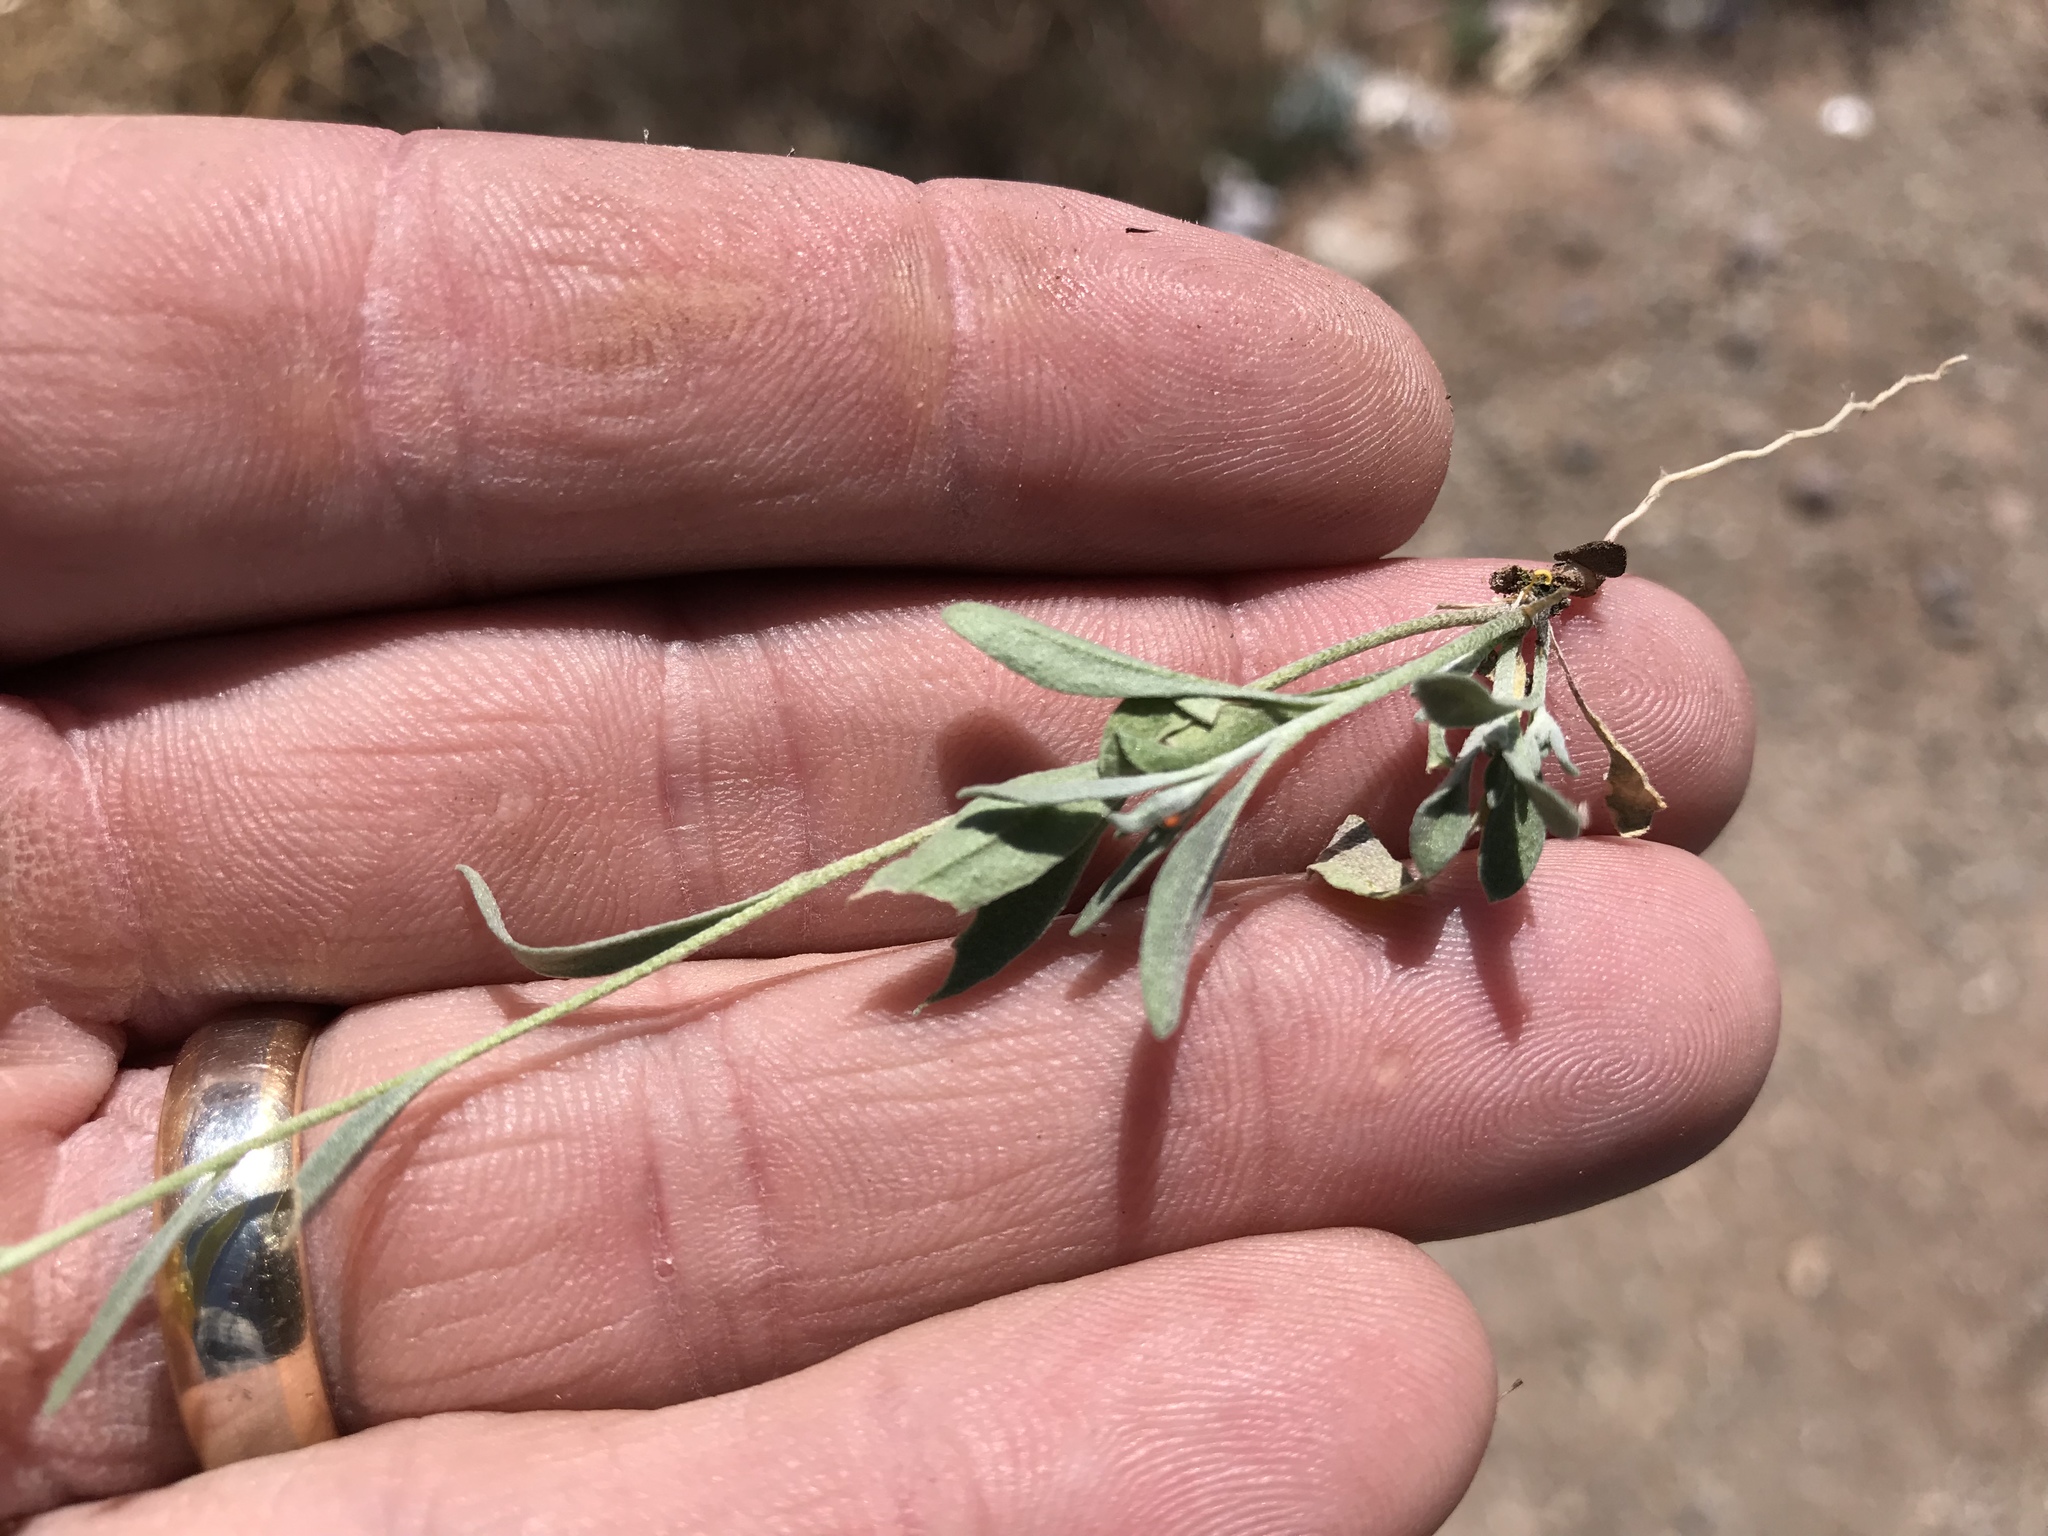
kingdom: Plantae
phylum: Tracheophyta
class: Magnoliopsida
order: Brassicales
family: Brassicaceae
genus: Physaria
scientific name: Physaria gordonii
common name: Gordon's bladderpod
